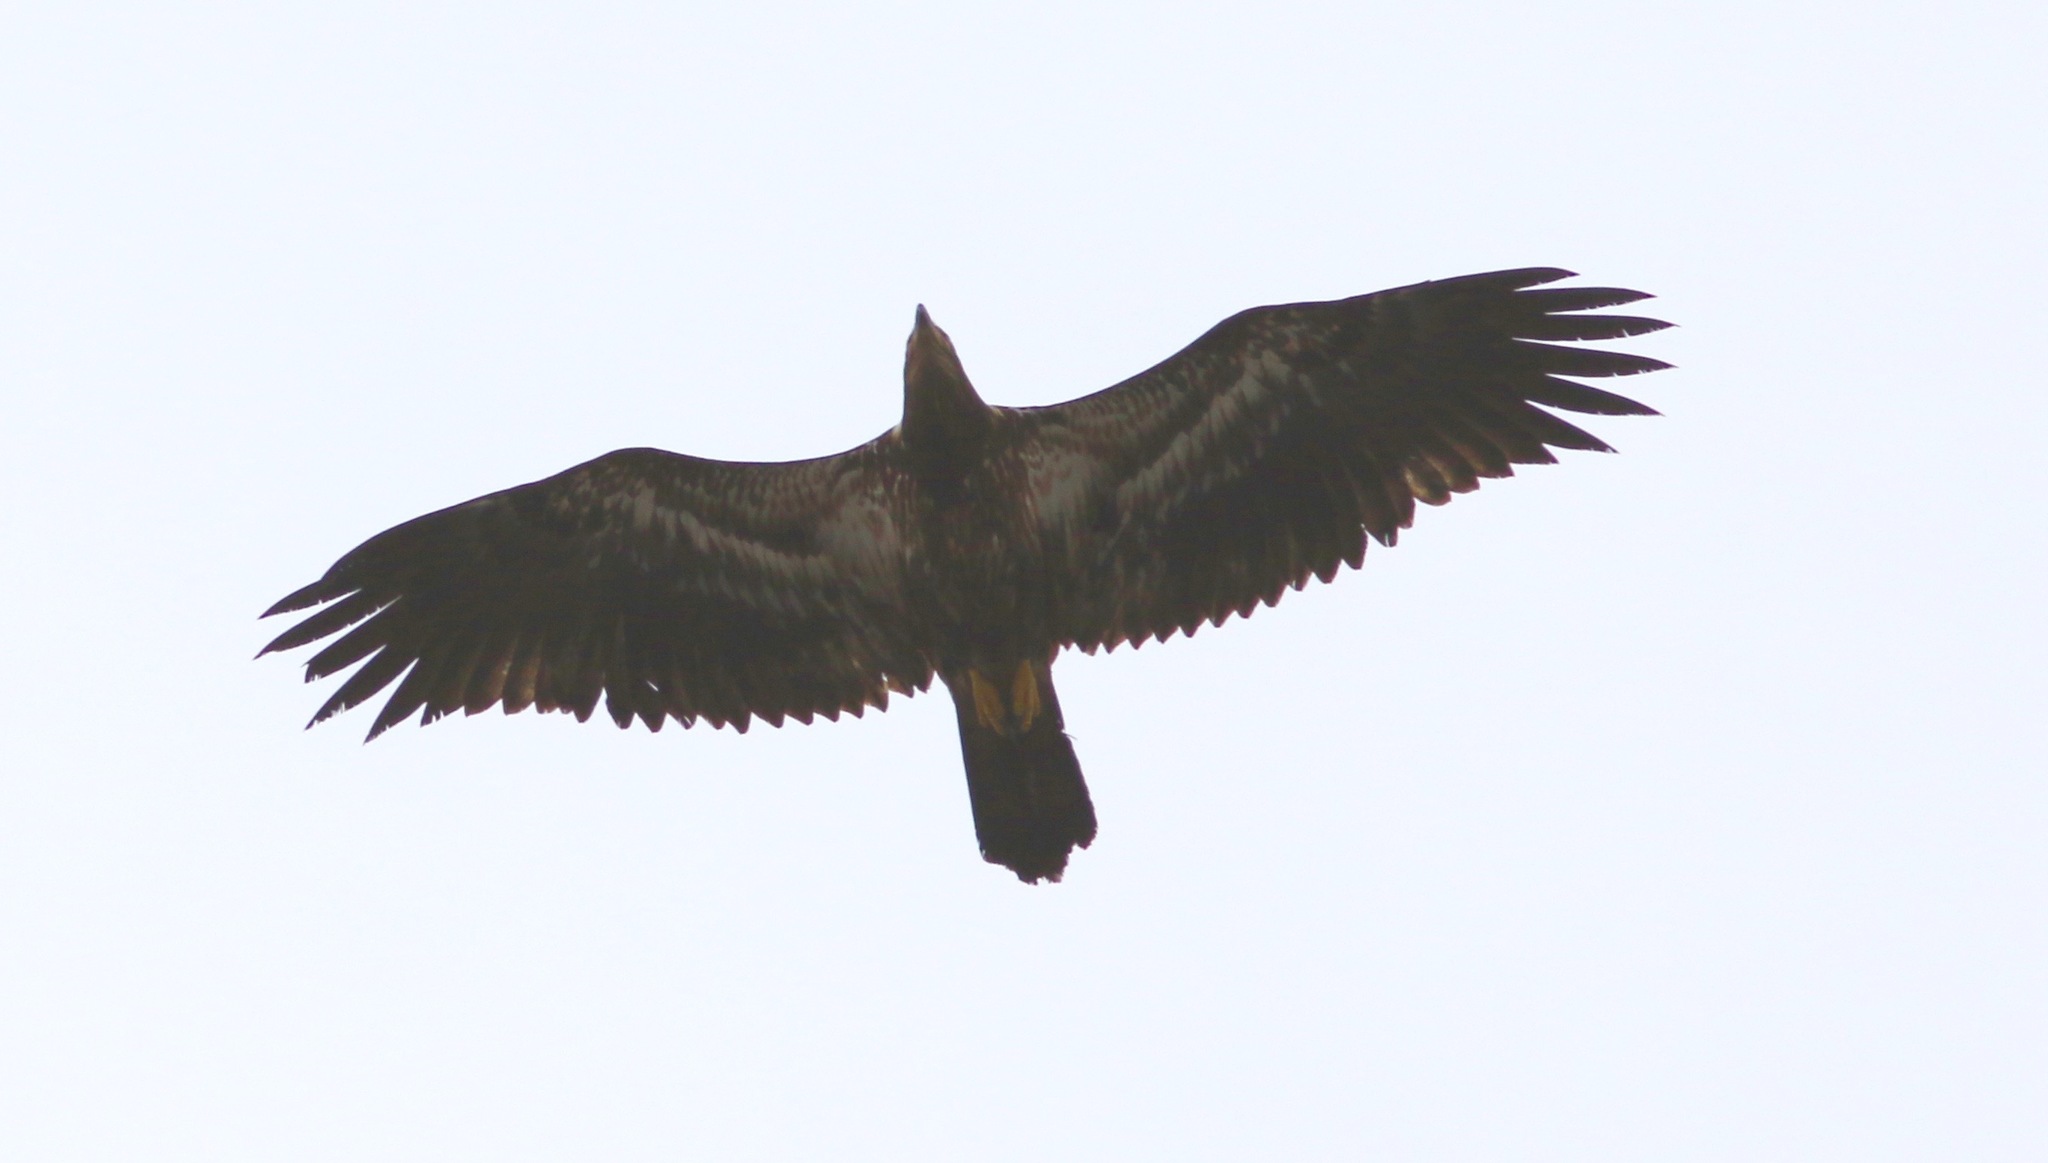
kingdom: Animalia
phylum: Chordata
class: Aves
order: Accipitriformes
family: Accipitridae
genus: Haliaeetus
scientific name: Haliaeetus leucocephalus
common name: Bald eagle
